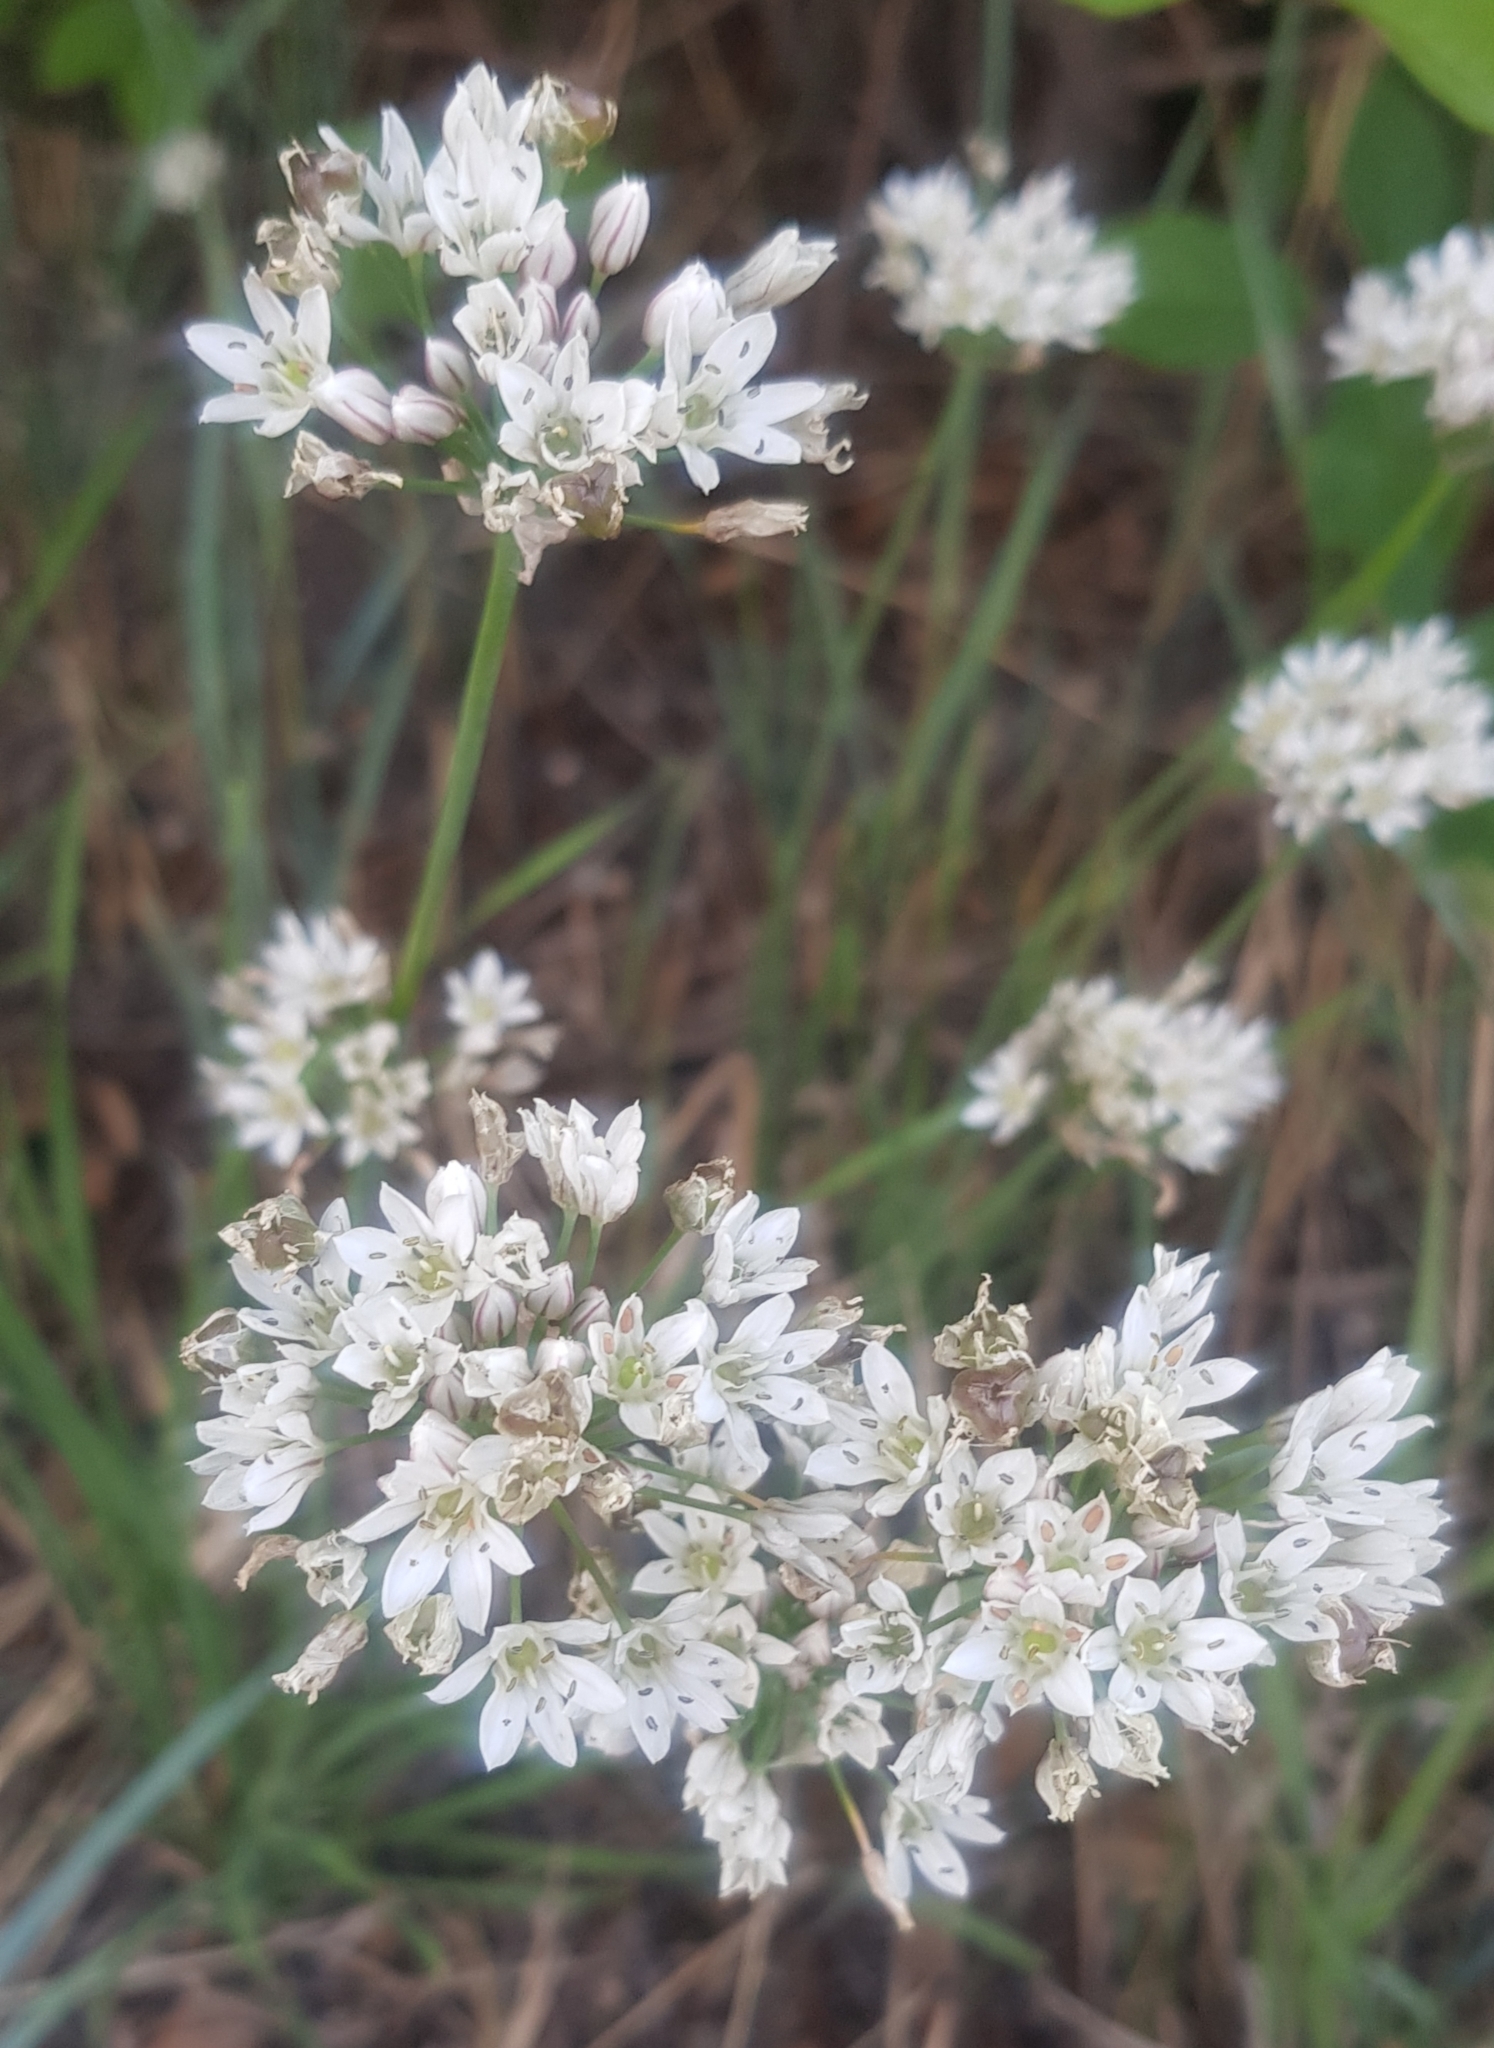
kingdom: Plantae
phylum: Tracheophyta
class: Liliopsida
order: Asparagales
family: Amaryllidaceae
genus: Allium
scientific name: Allium ramosum
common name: Fragrant garlic
